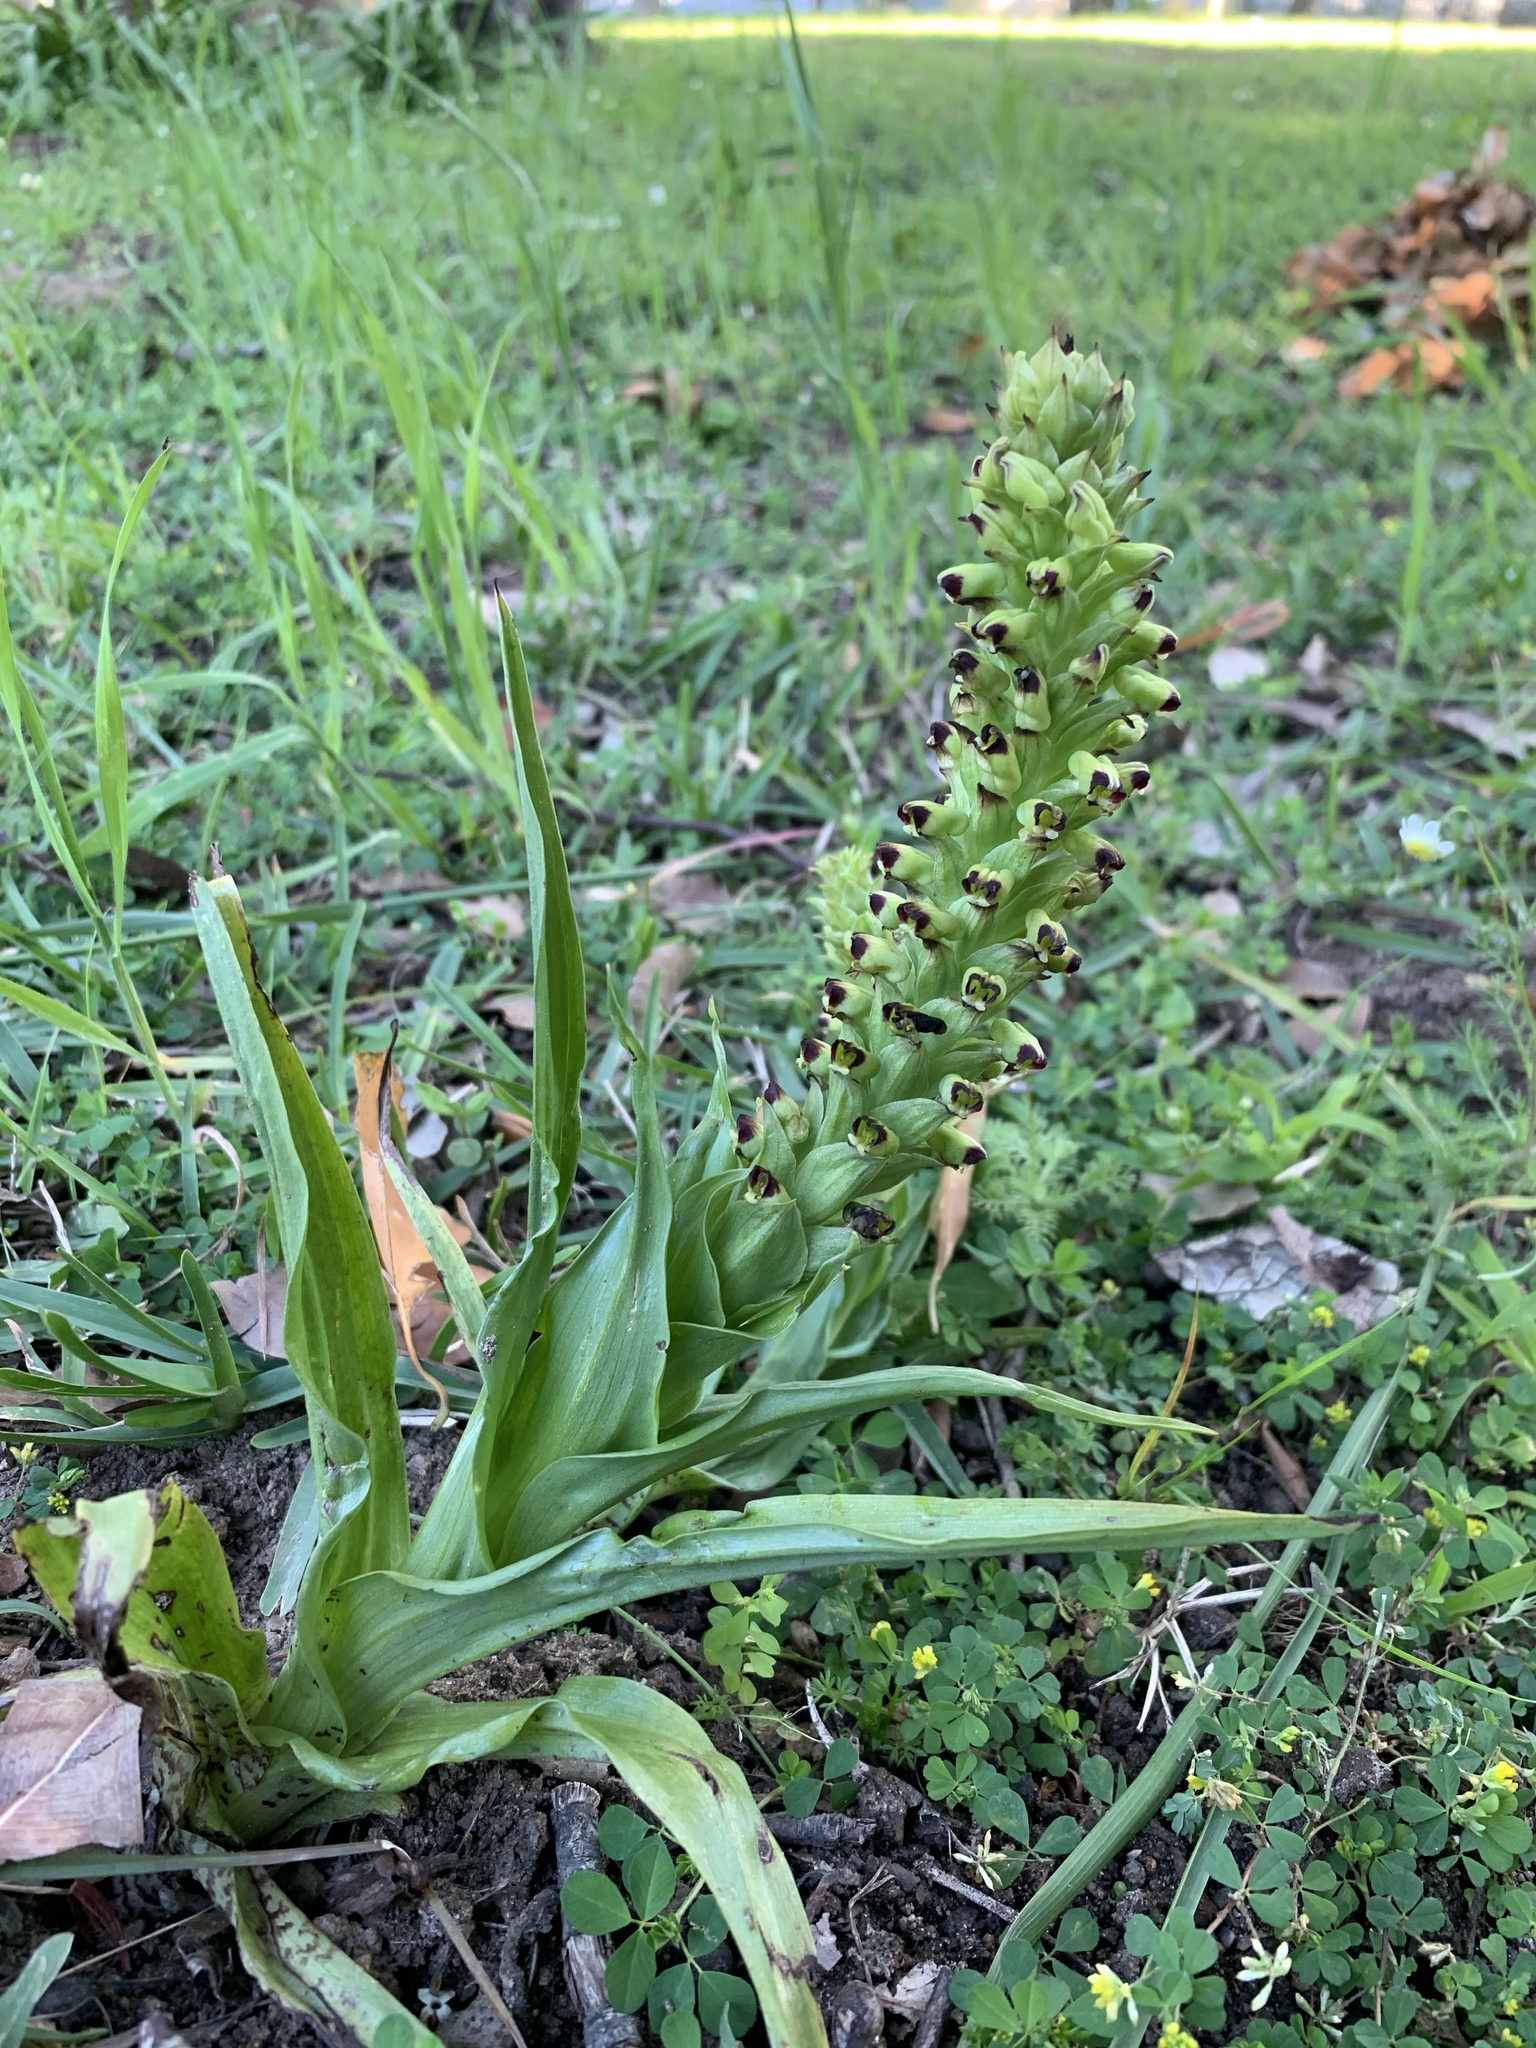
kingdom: Plantae
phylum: Tracheophyta
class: Liliopsida
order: Asparagales
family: Orchidaceae
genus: Corycium
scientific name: Corycium orobanchoides
